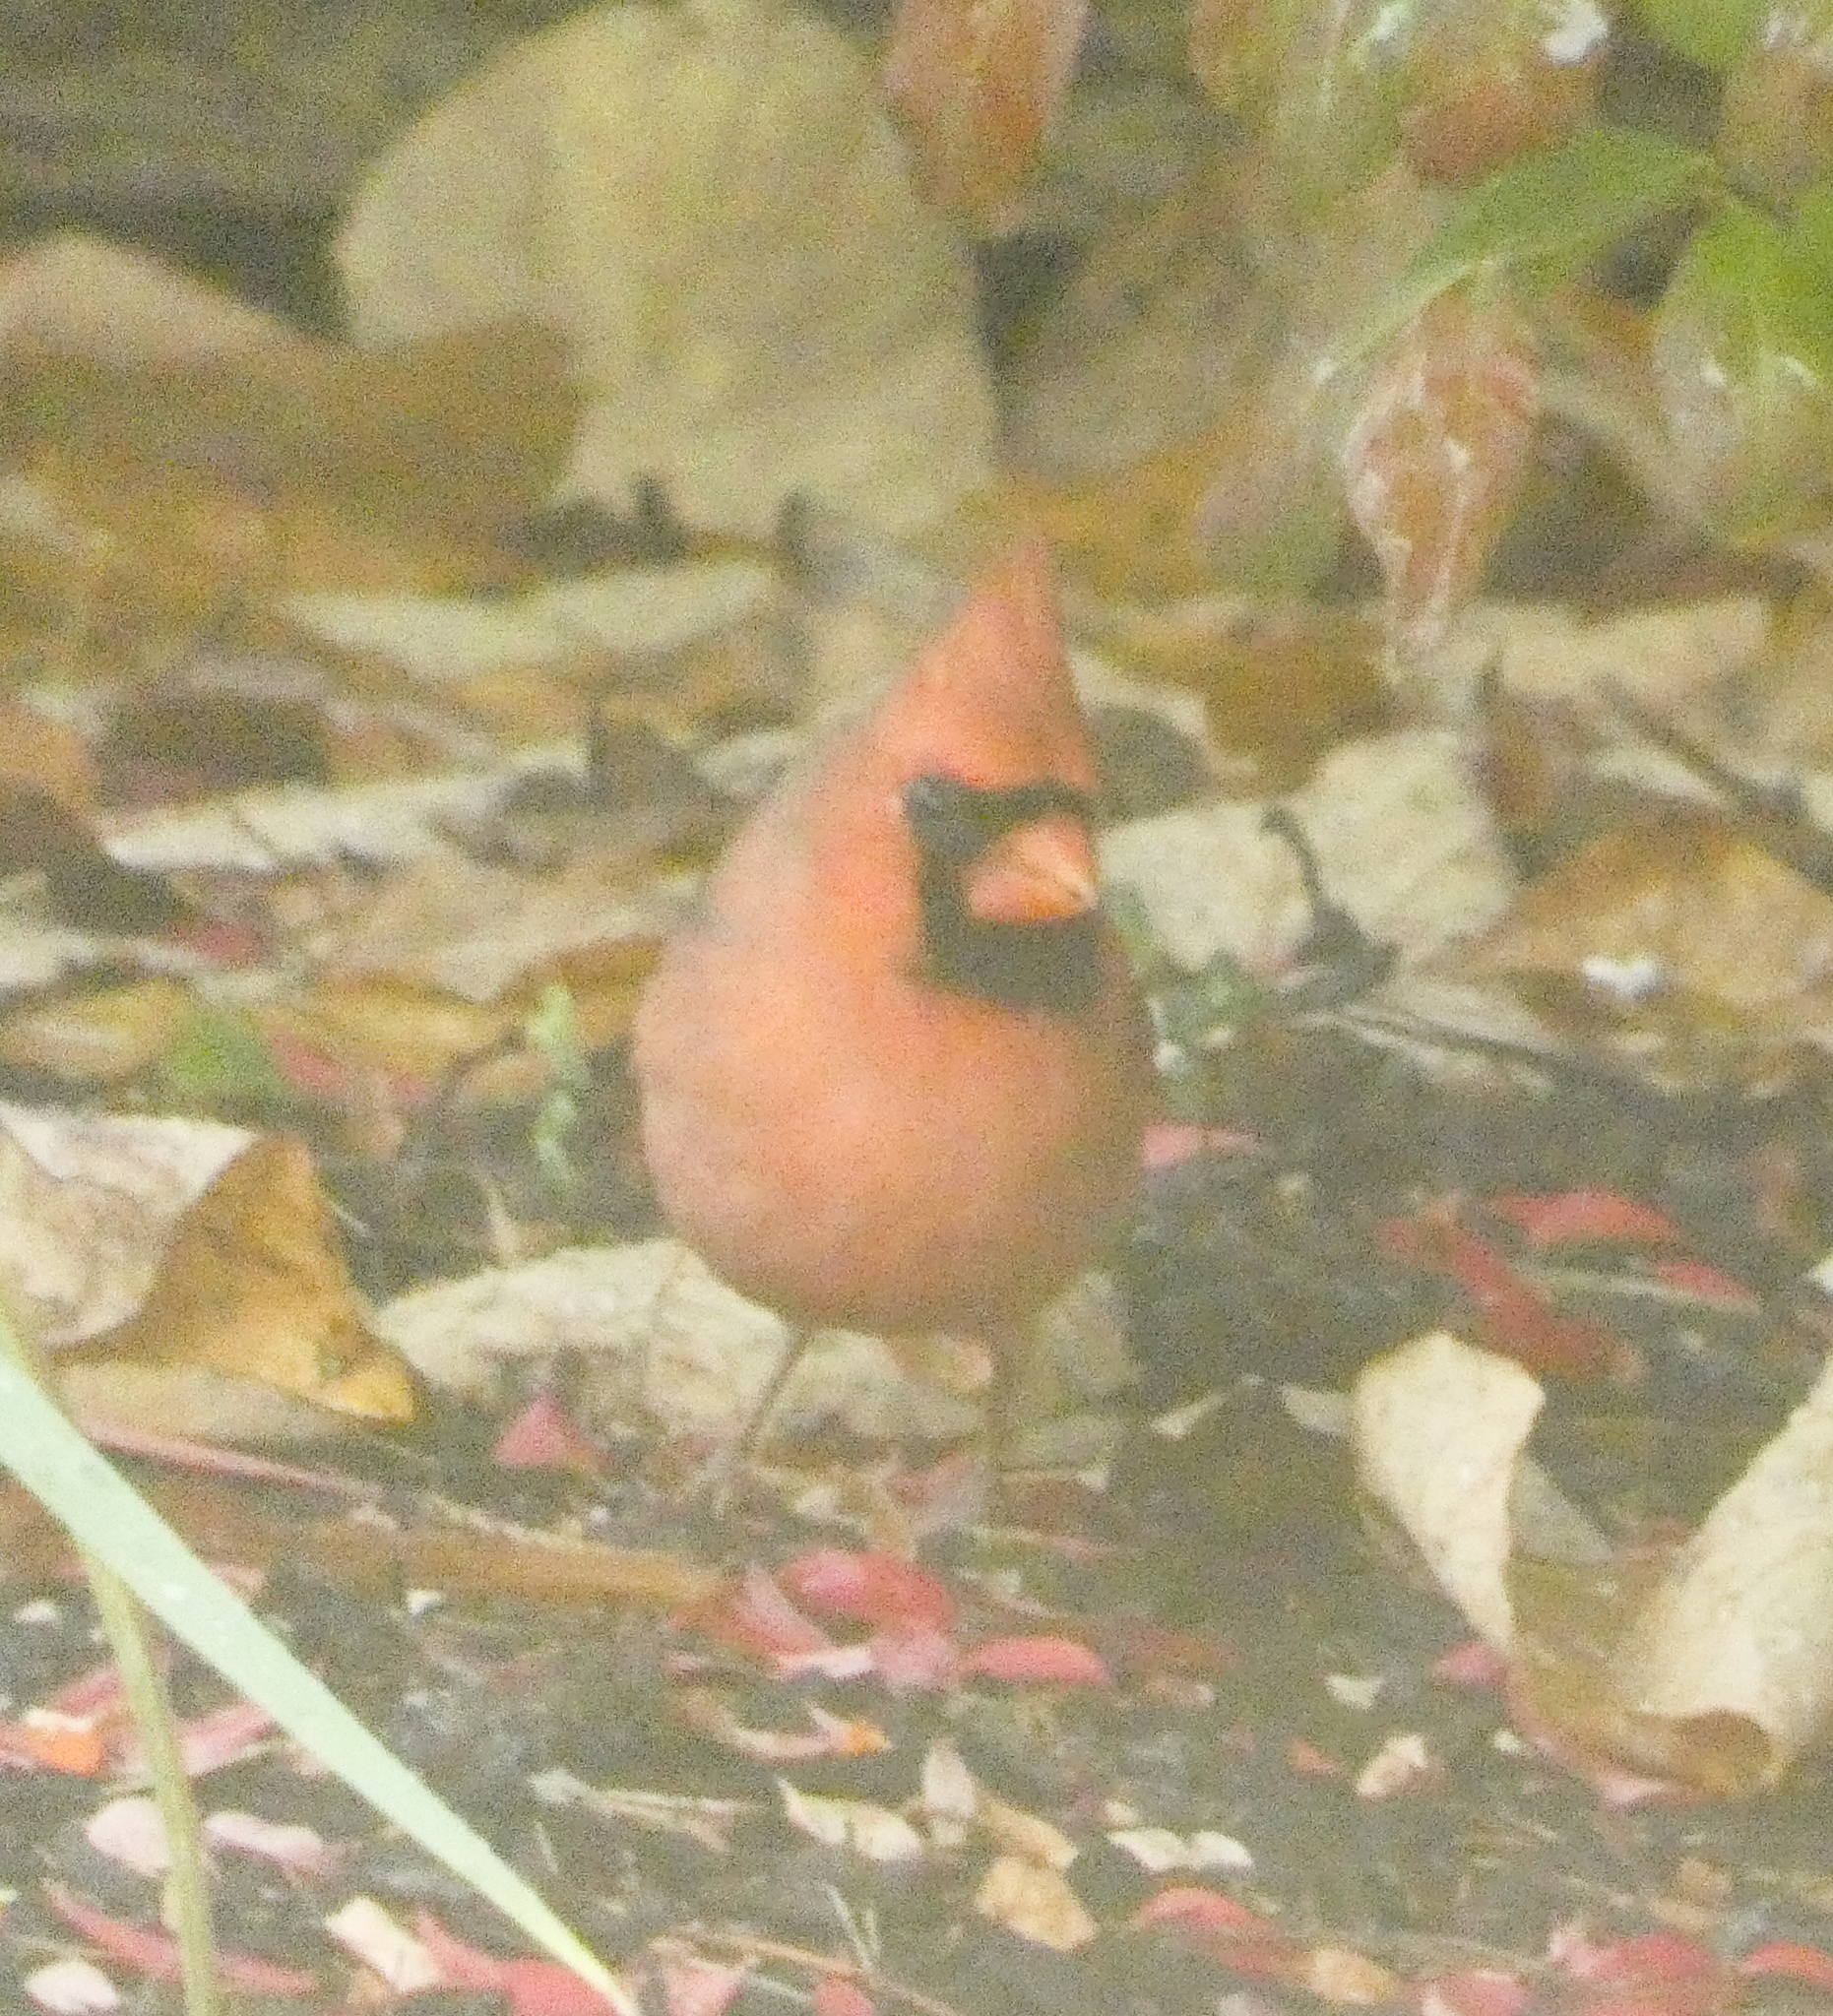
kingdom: Animalia
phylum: Chordata
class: Aves
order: Passeriformes
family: Cardinalidae
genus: Cardinalis
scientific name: Cardinalis cardinalis
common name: Northern cardinal
